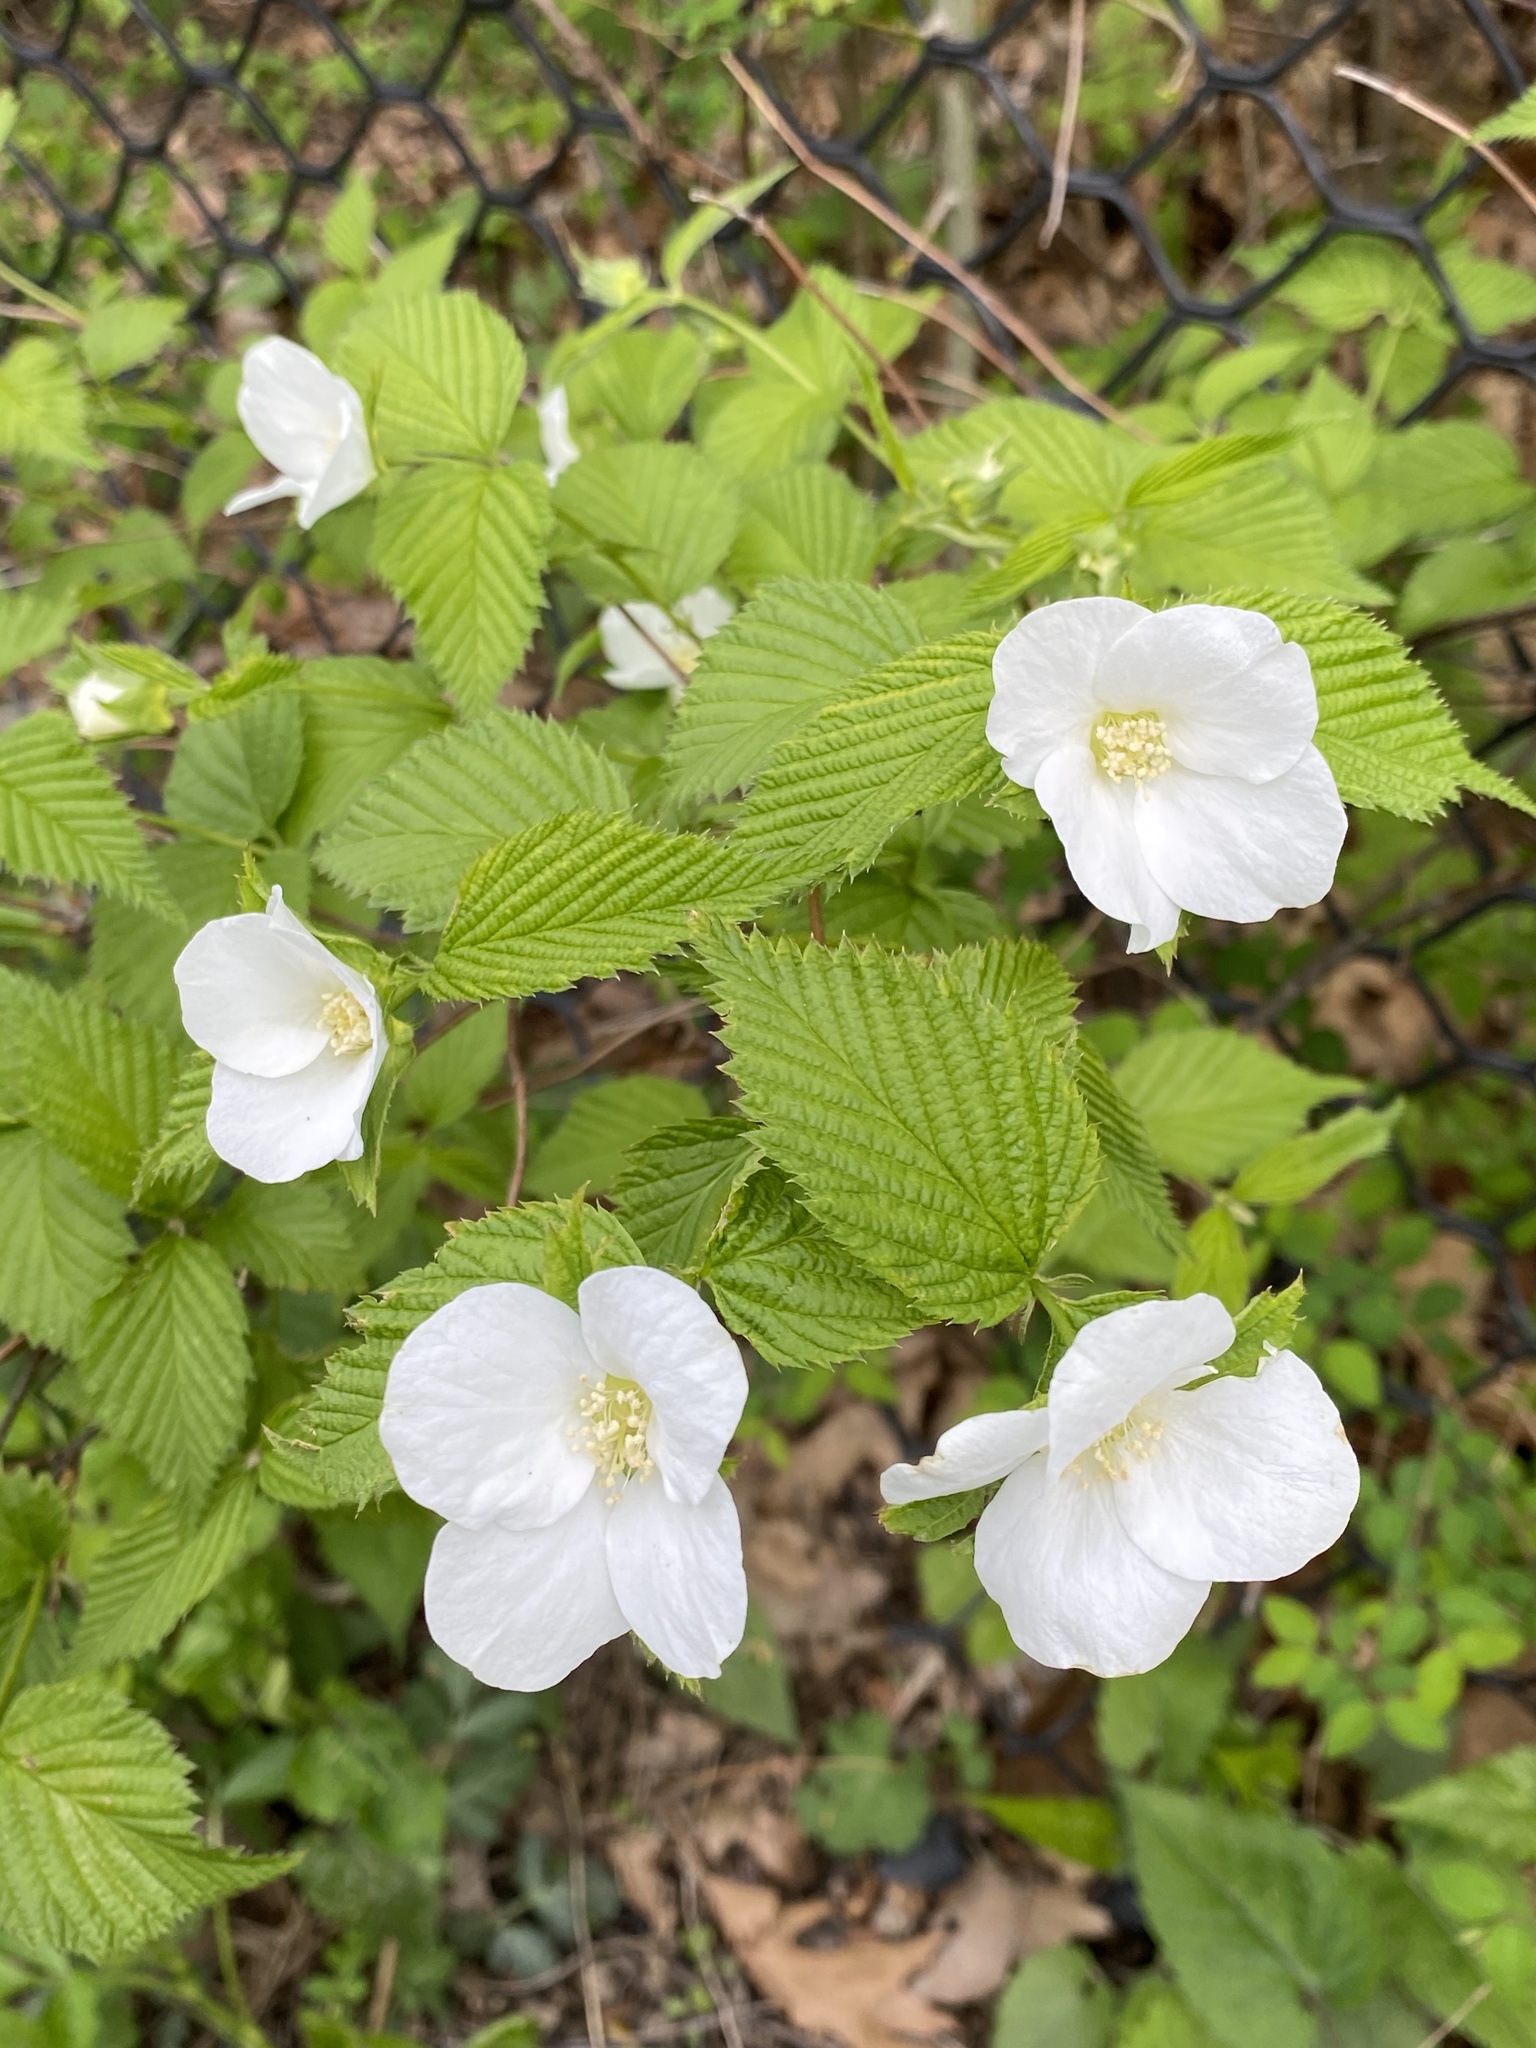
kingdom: Plantae
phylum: Tracheophyta
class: Magnoliopsida
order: Rosales
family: Rosaceae
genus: Rhodotypos
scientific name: Rhodotypos scandens
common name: Jetbead
